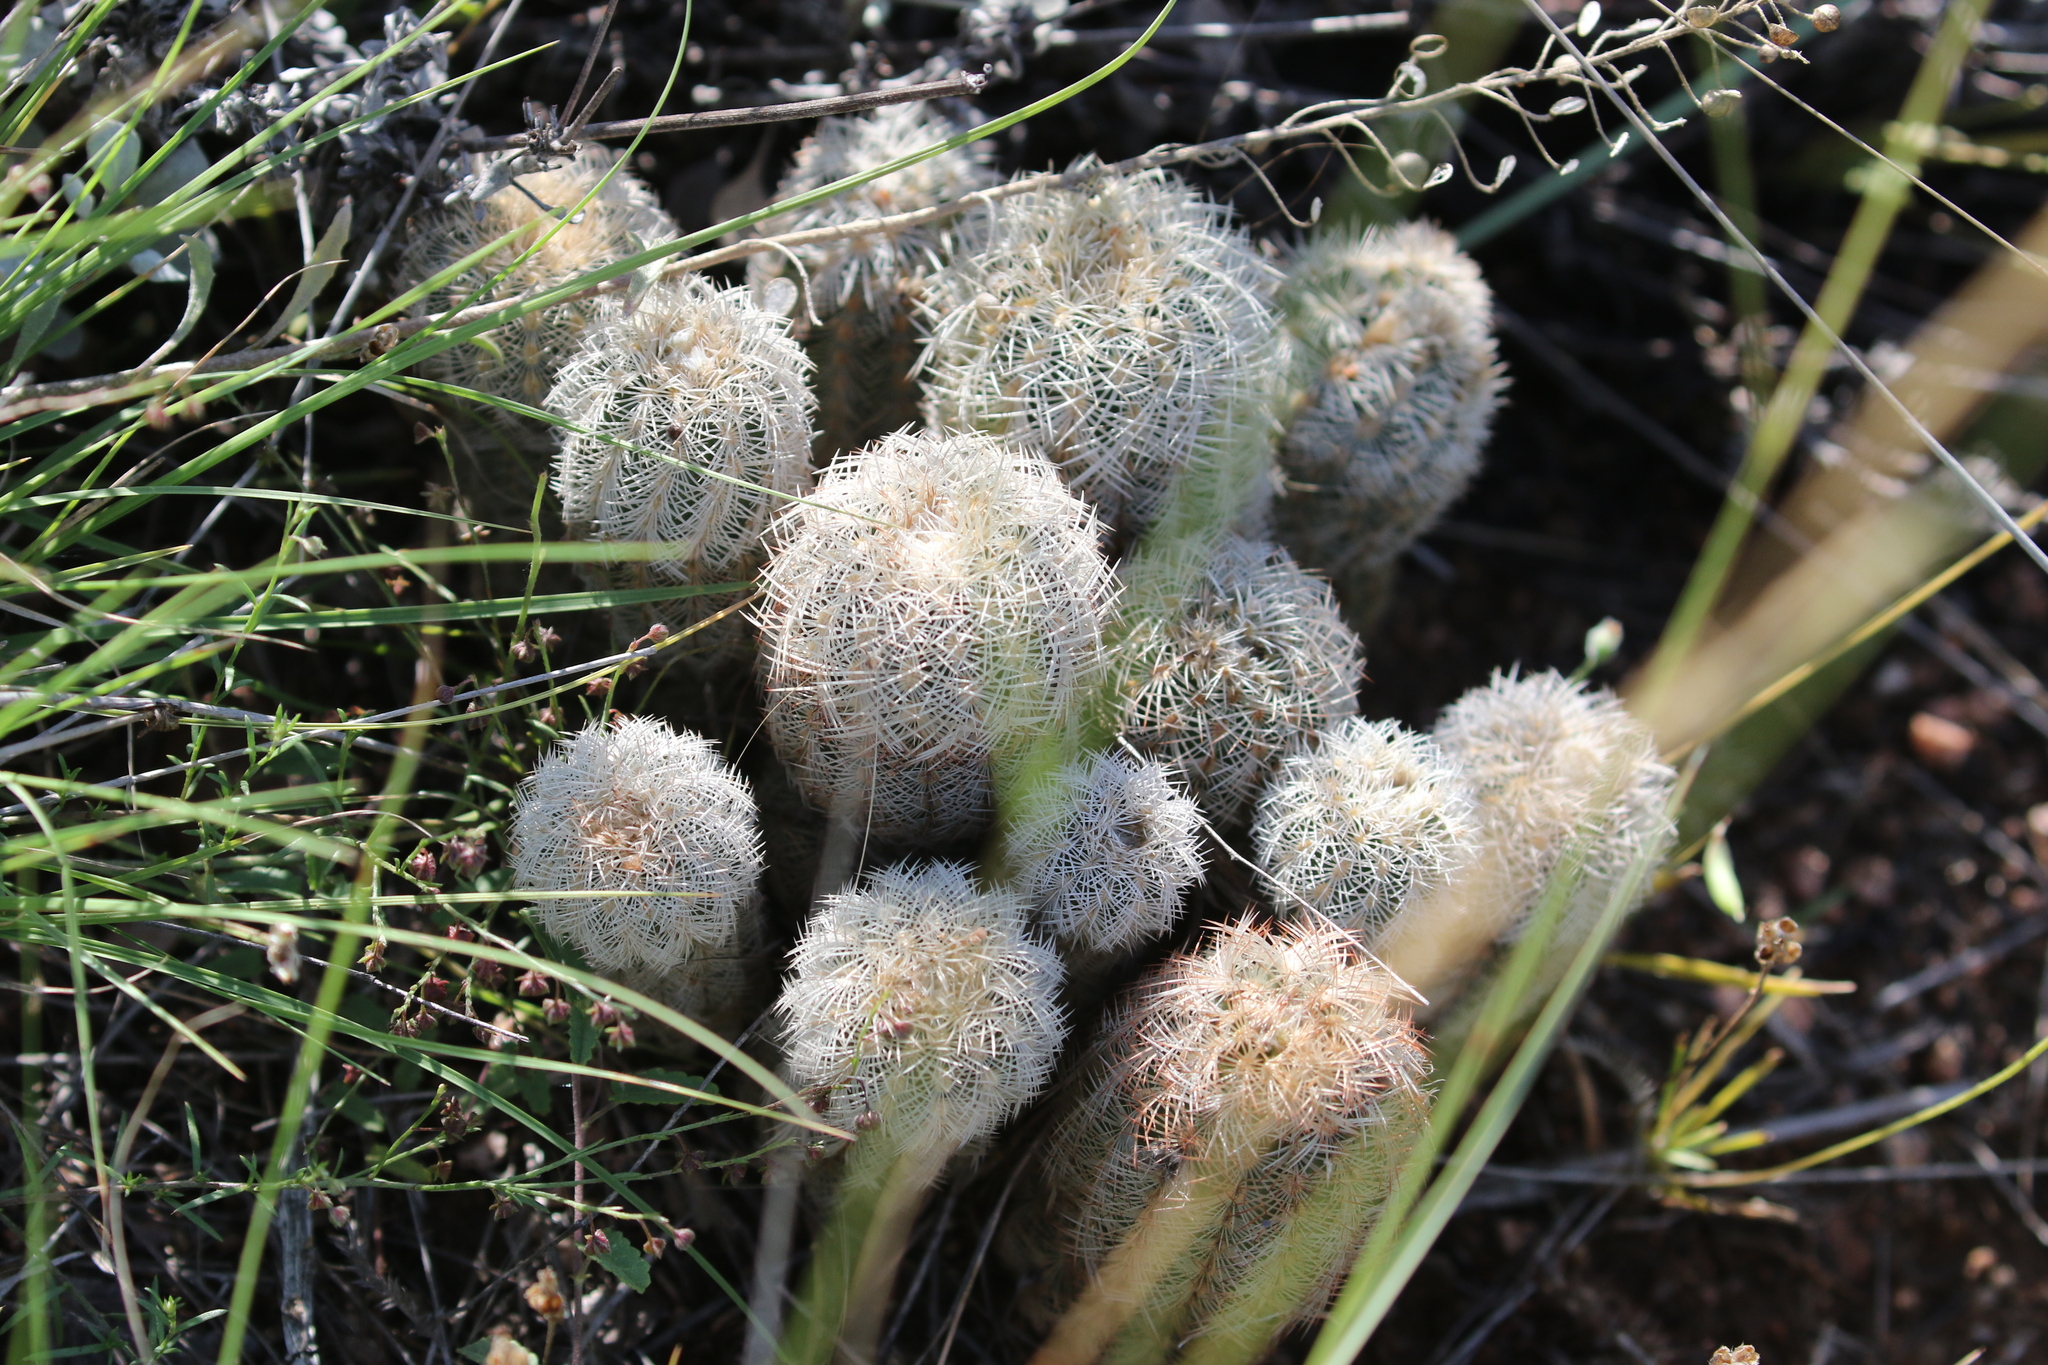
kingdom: Plantae
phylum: Tracheophyta
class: Magnoliopsida
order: Caryophyllales
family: Cactaceae
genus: Echinocereus
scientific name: Echinocereus reichenbachii
